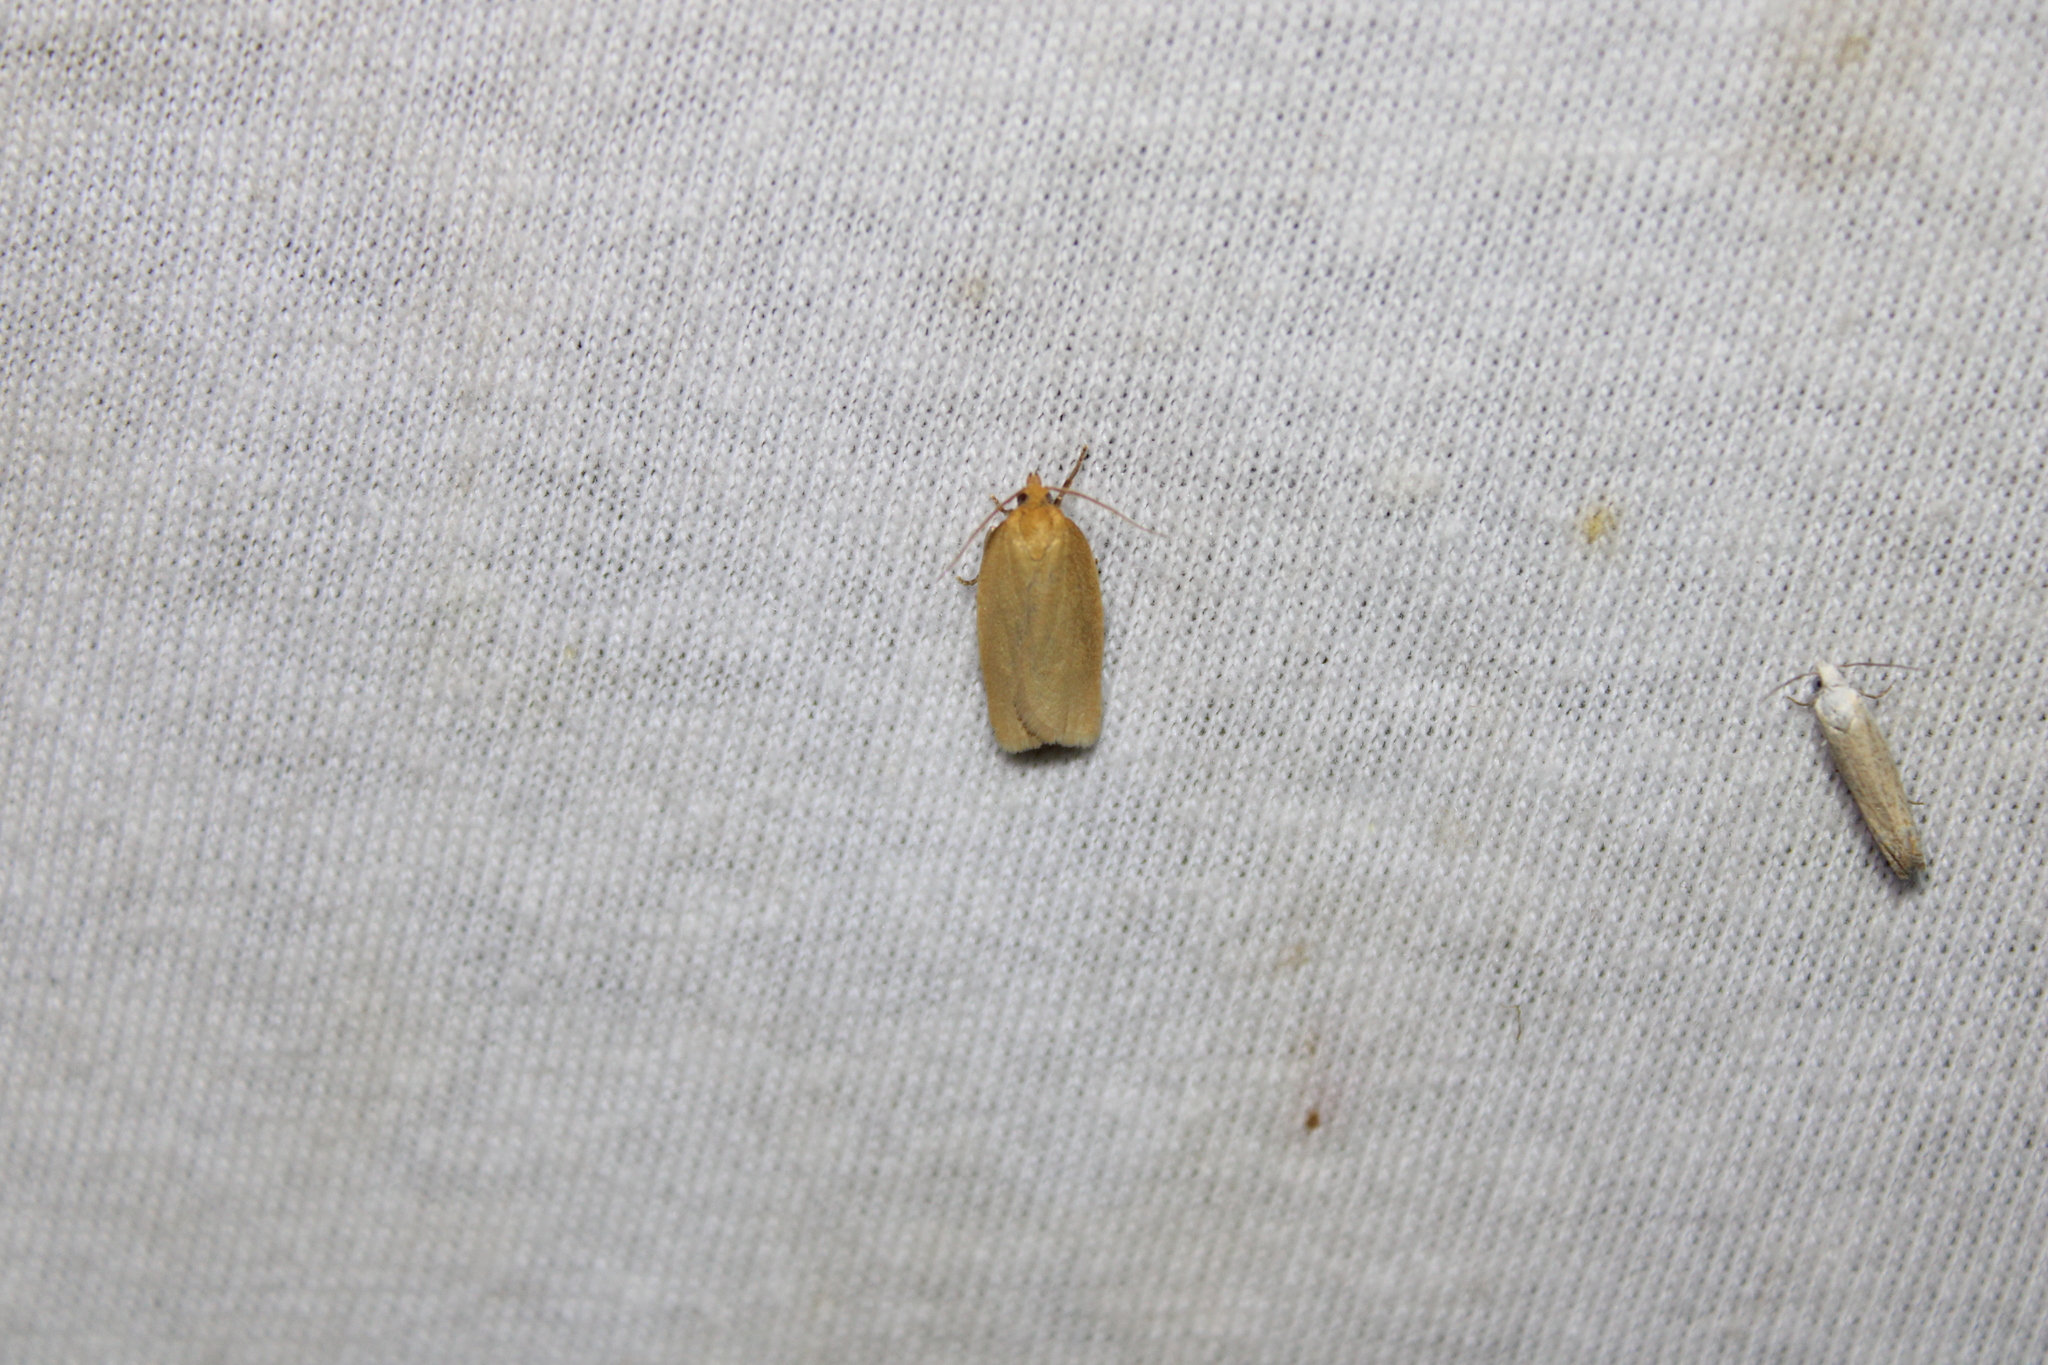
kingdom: Animalia
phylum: Arthropoda
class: Insecta
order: Lepidoptera
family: Tortricidae
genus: Xenotemna
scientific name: Xenotemna pallorana
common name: Pallid leafroller moth
